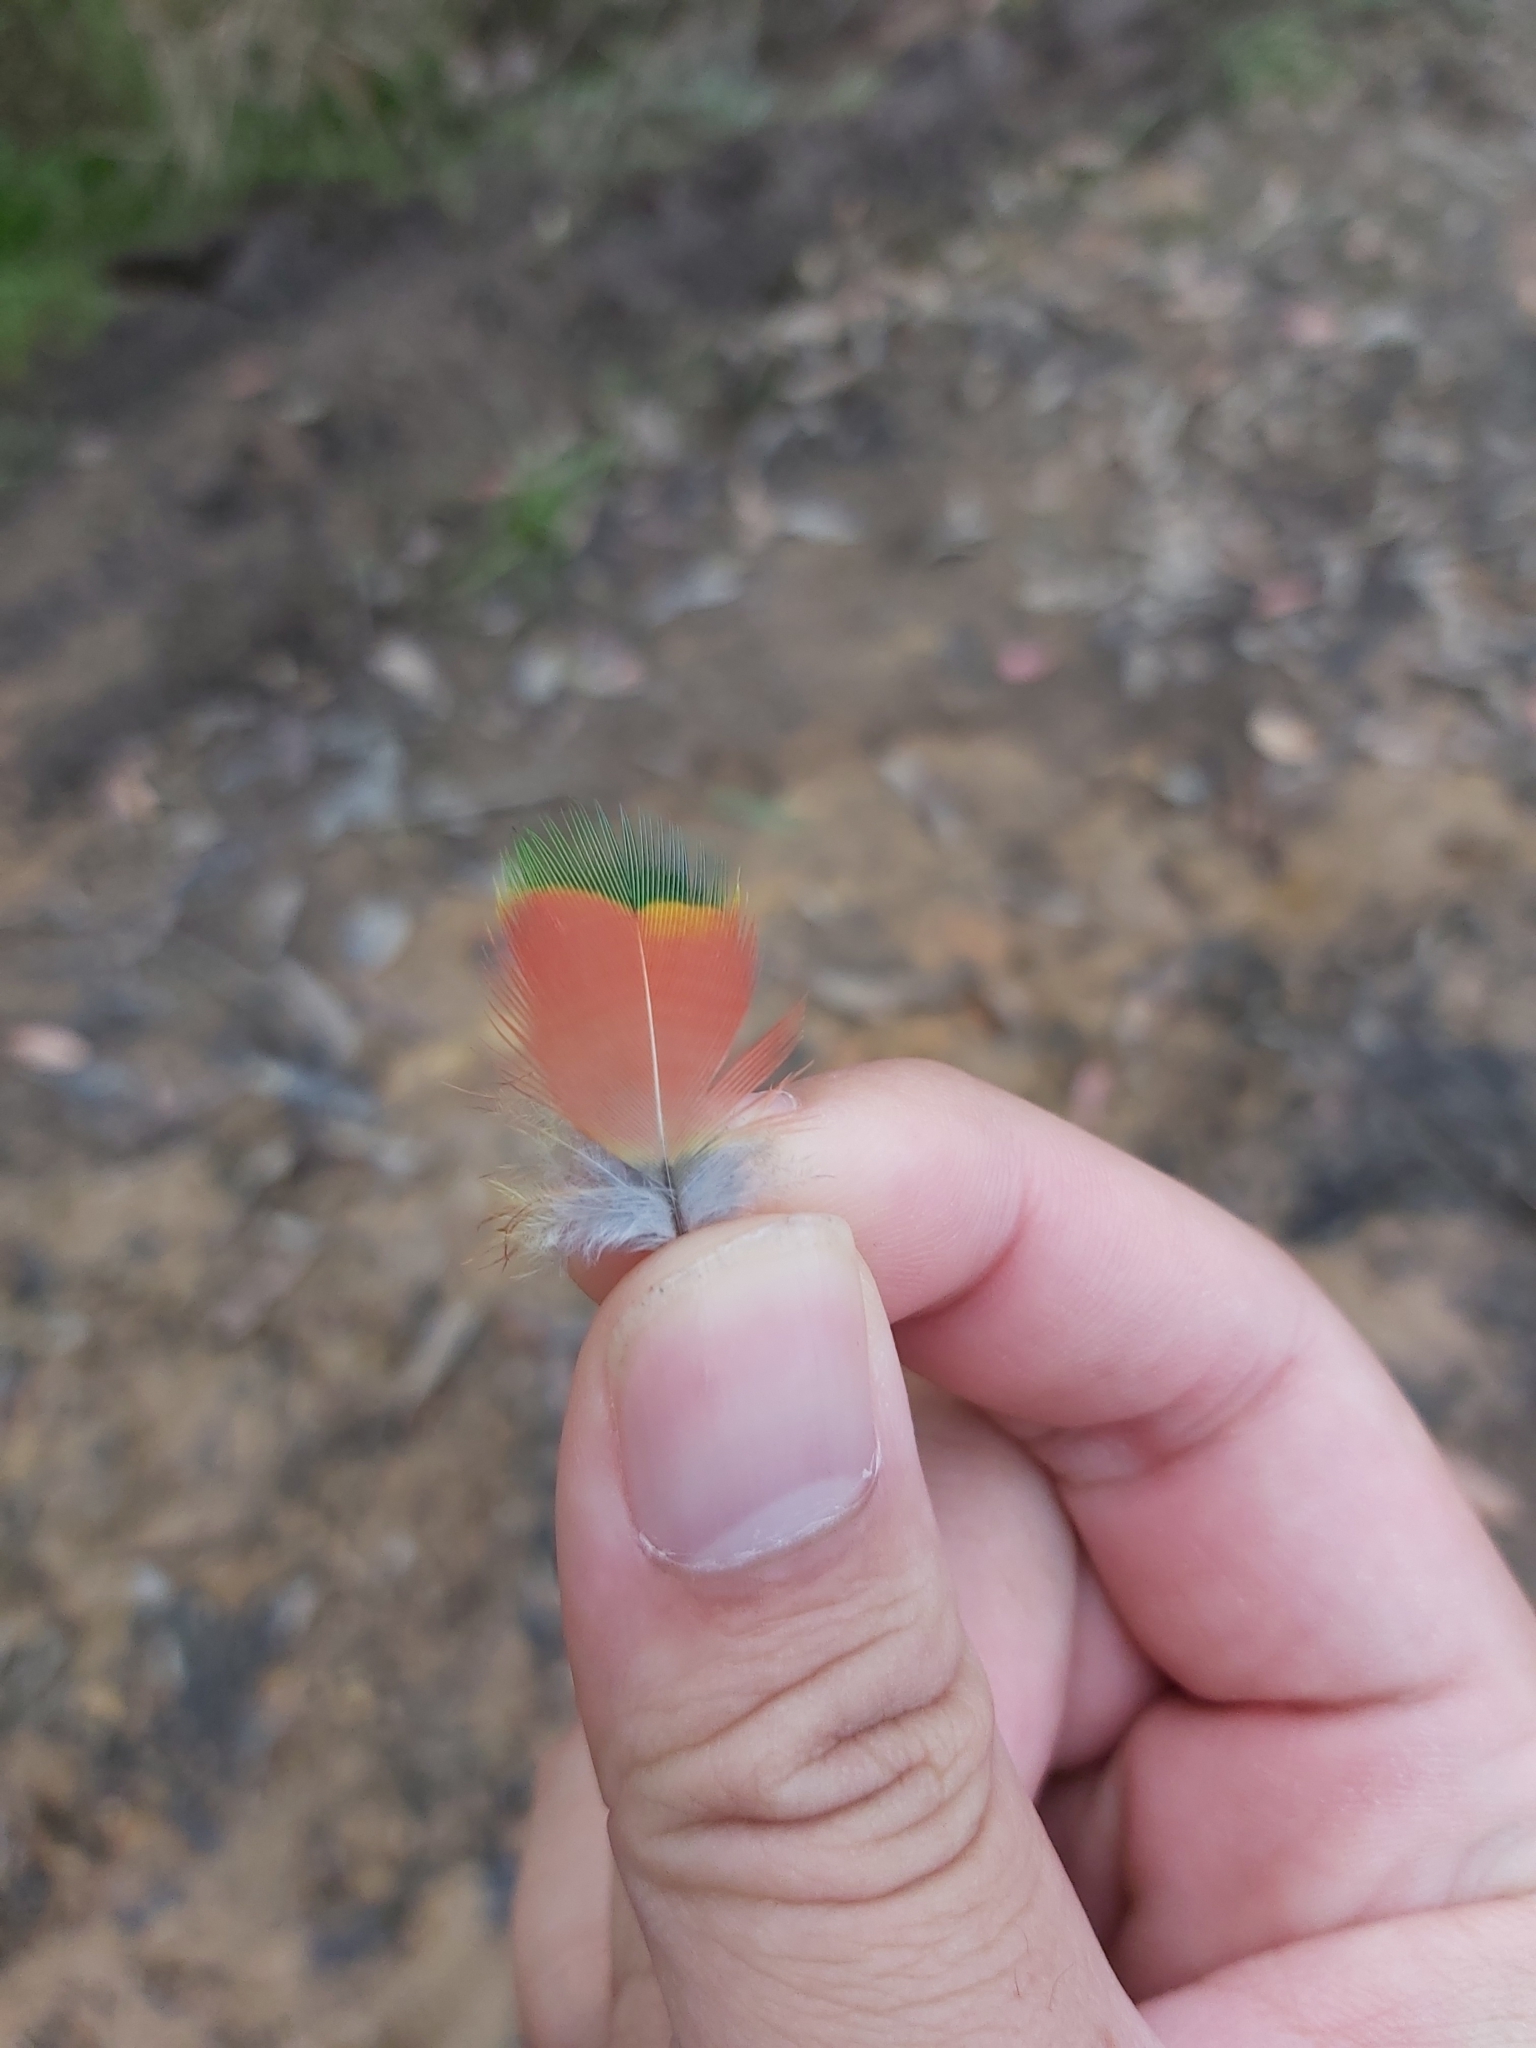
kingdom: Animalia
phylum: Chordata
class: Aves
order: Psittaciformes
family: Psittacidae
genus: Trichoglossus
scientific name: Trichoglossus haematodus
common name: Coconut lorikeet
